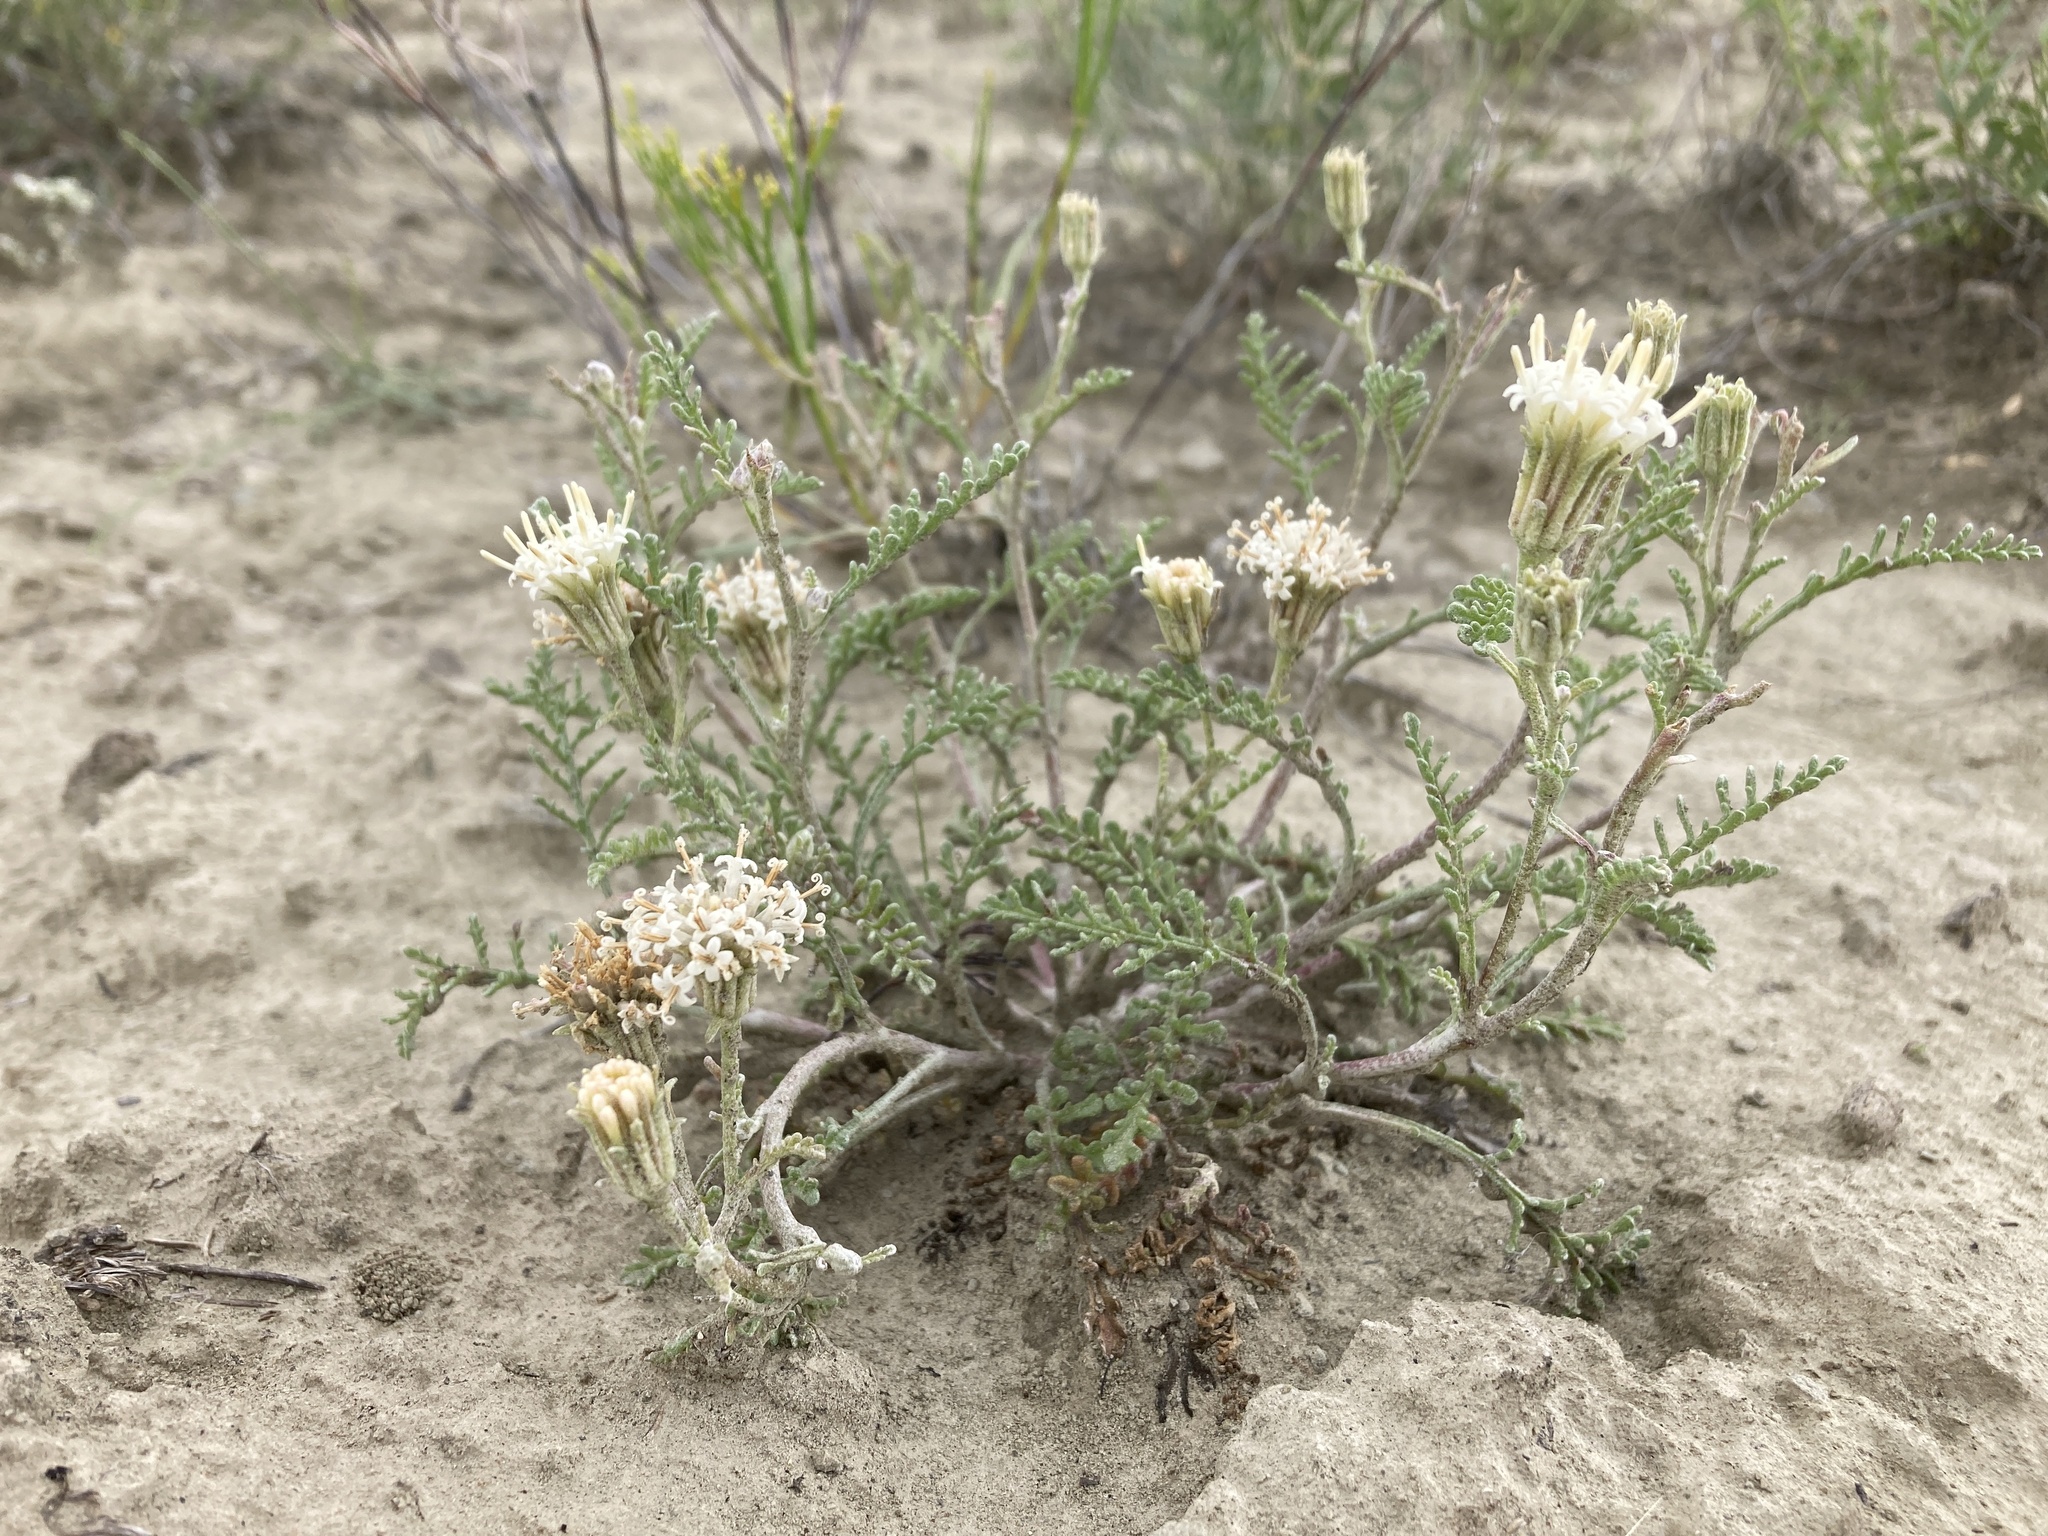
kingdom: Plantae
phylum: Tracheophyta
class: Magnoliopsida
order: Asterales
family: Asteraceae
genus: Chaenactis
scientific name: Chaenactis douglasii
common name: Hoary pincushion
